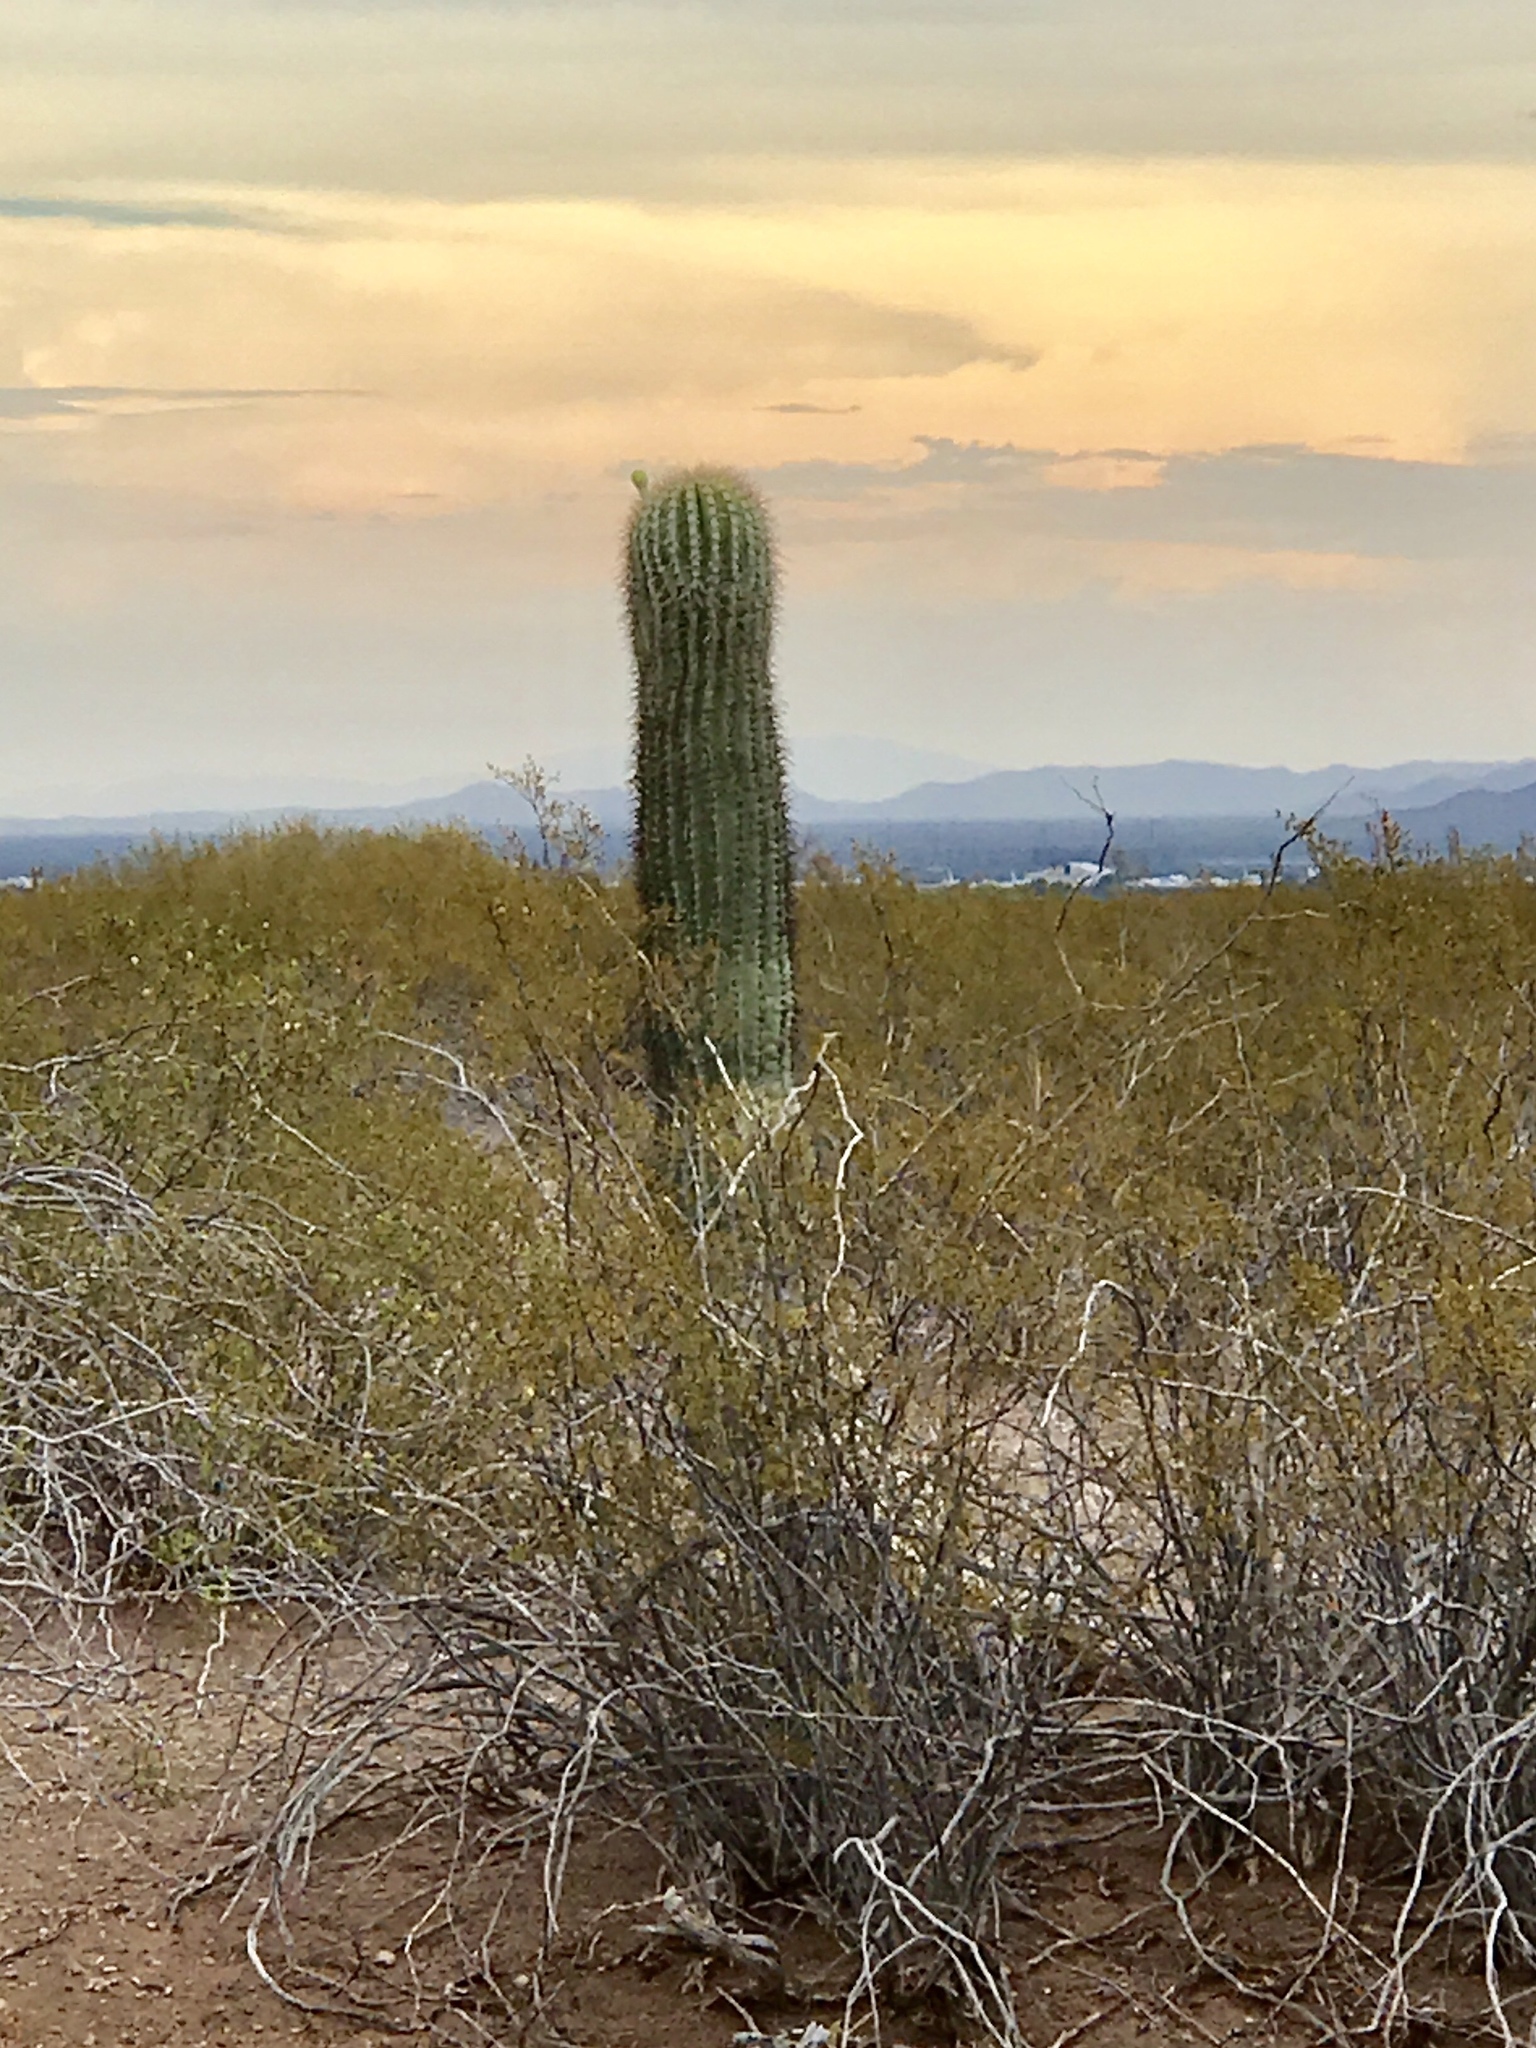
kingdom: Plantae
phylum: Tracheophyta
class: Magnoliopsida
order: Zygophyllales
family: Zygophyllaceae
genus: Larrea
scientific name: Larrea tridentata
